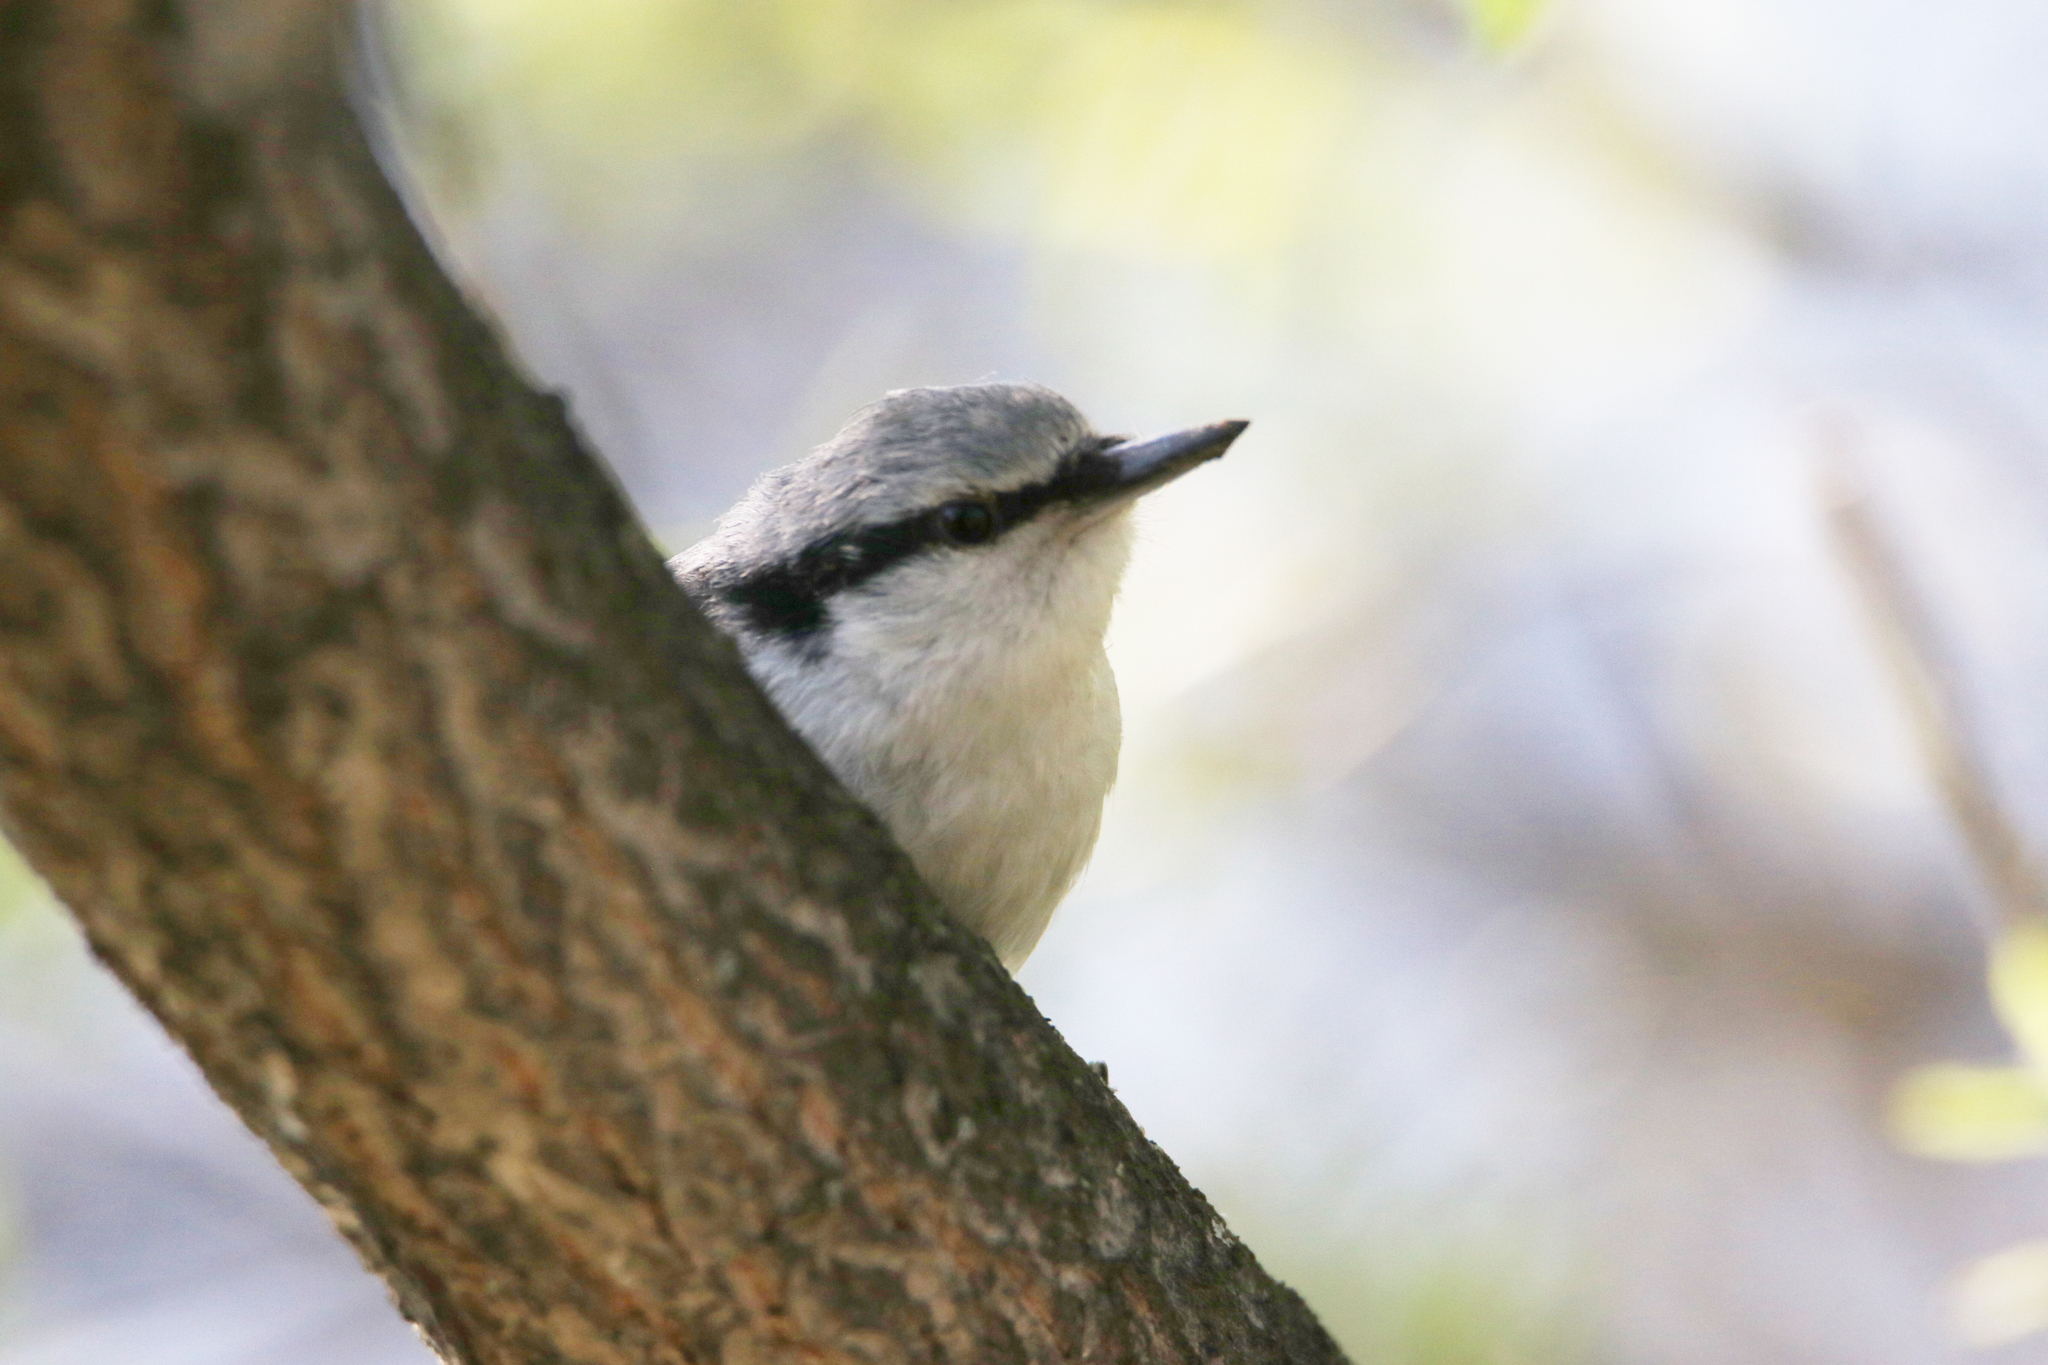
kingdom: Animalia
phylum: Chordata
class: Aves
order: Passeriformes
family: Sittidae
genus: Sitta
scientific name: Sitta europaea
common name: Eurasian nuthatch
